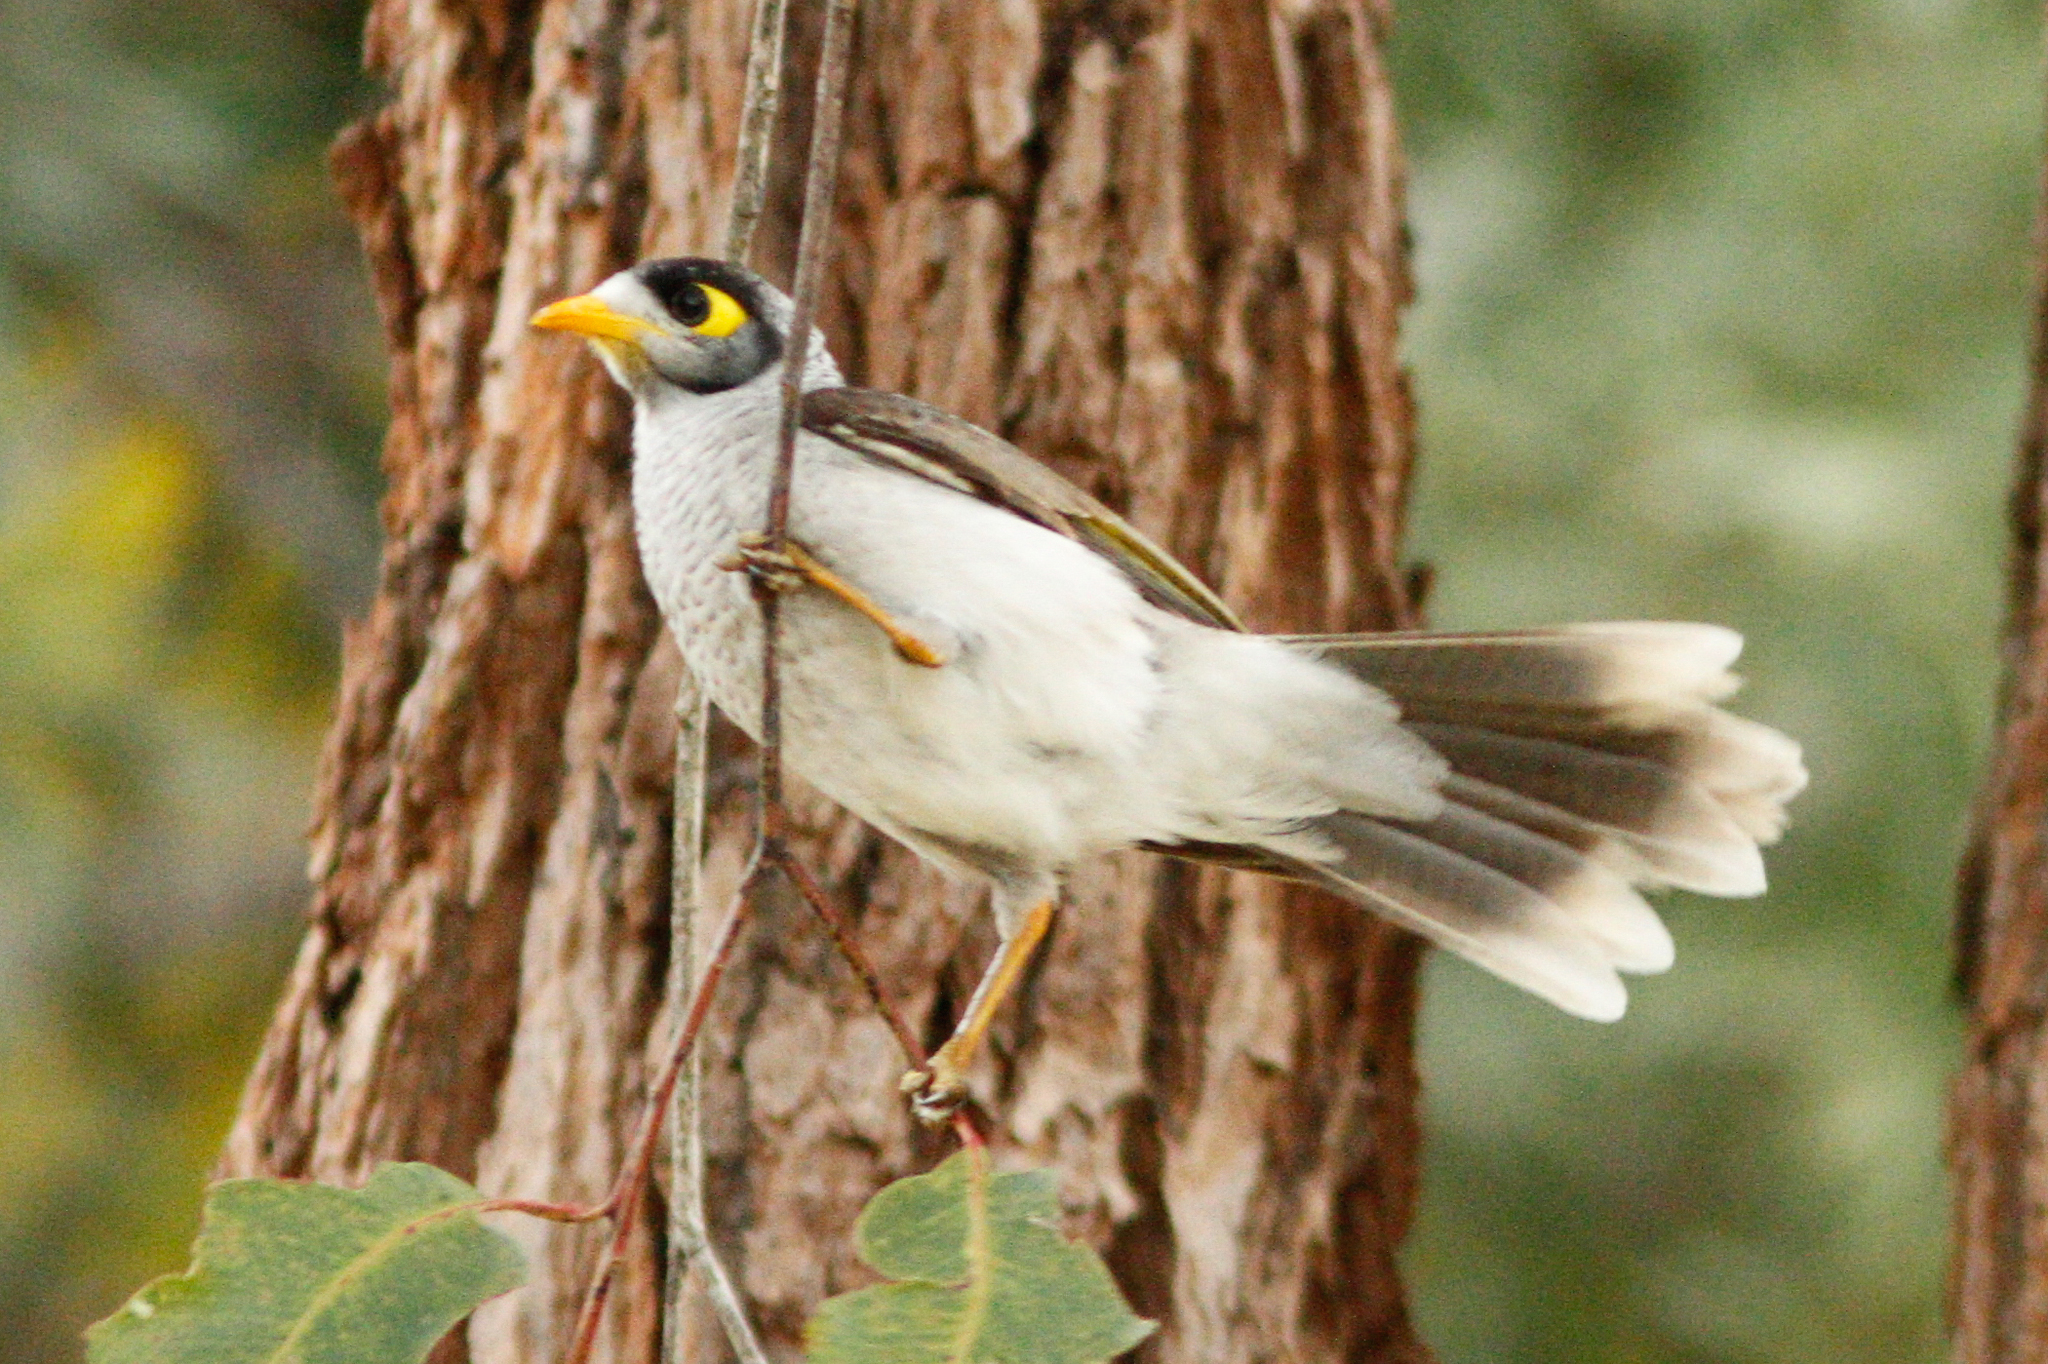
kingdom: Animalia
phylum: Chordata
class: Aves
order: Passeriformes
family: Meliphagidae
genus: Manorina
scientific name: Manorina melanocephala
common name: Noisy miner
